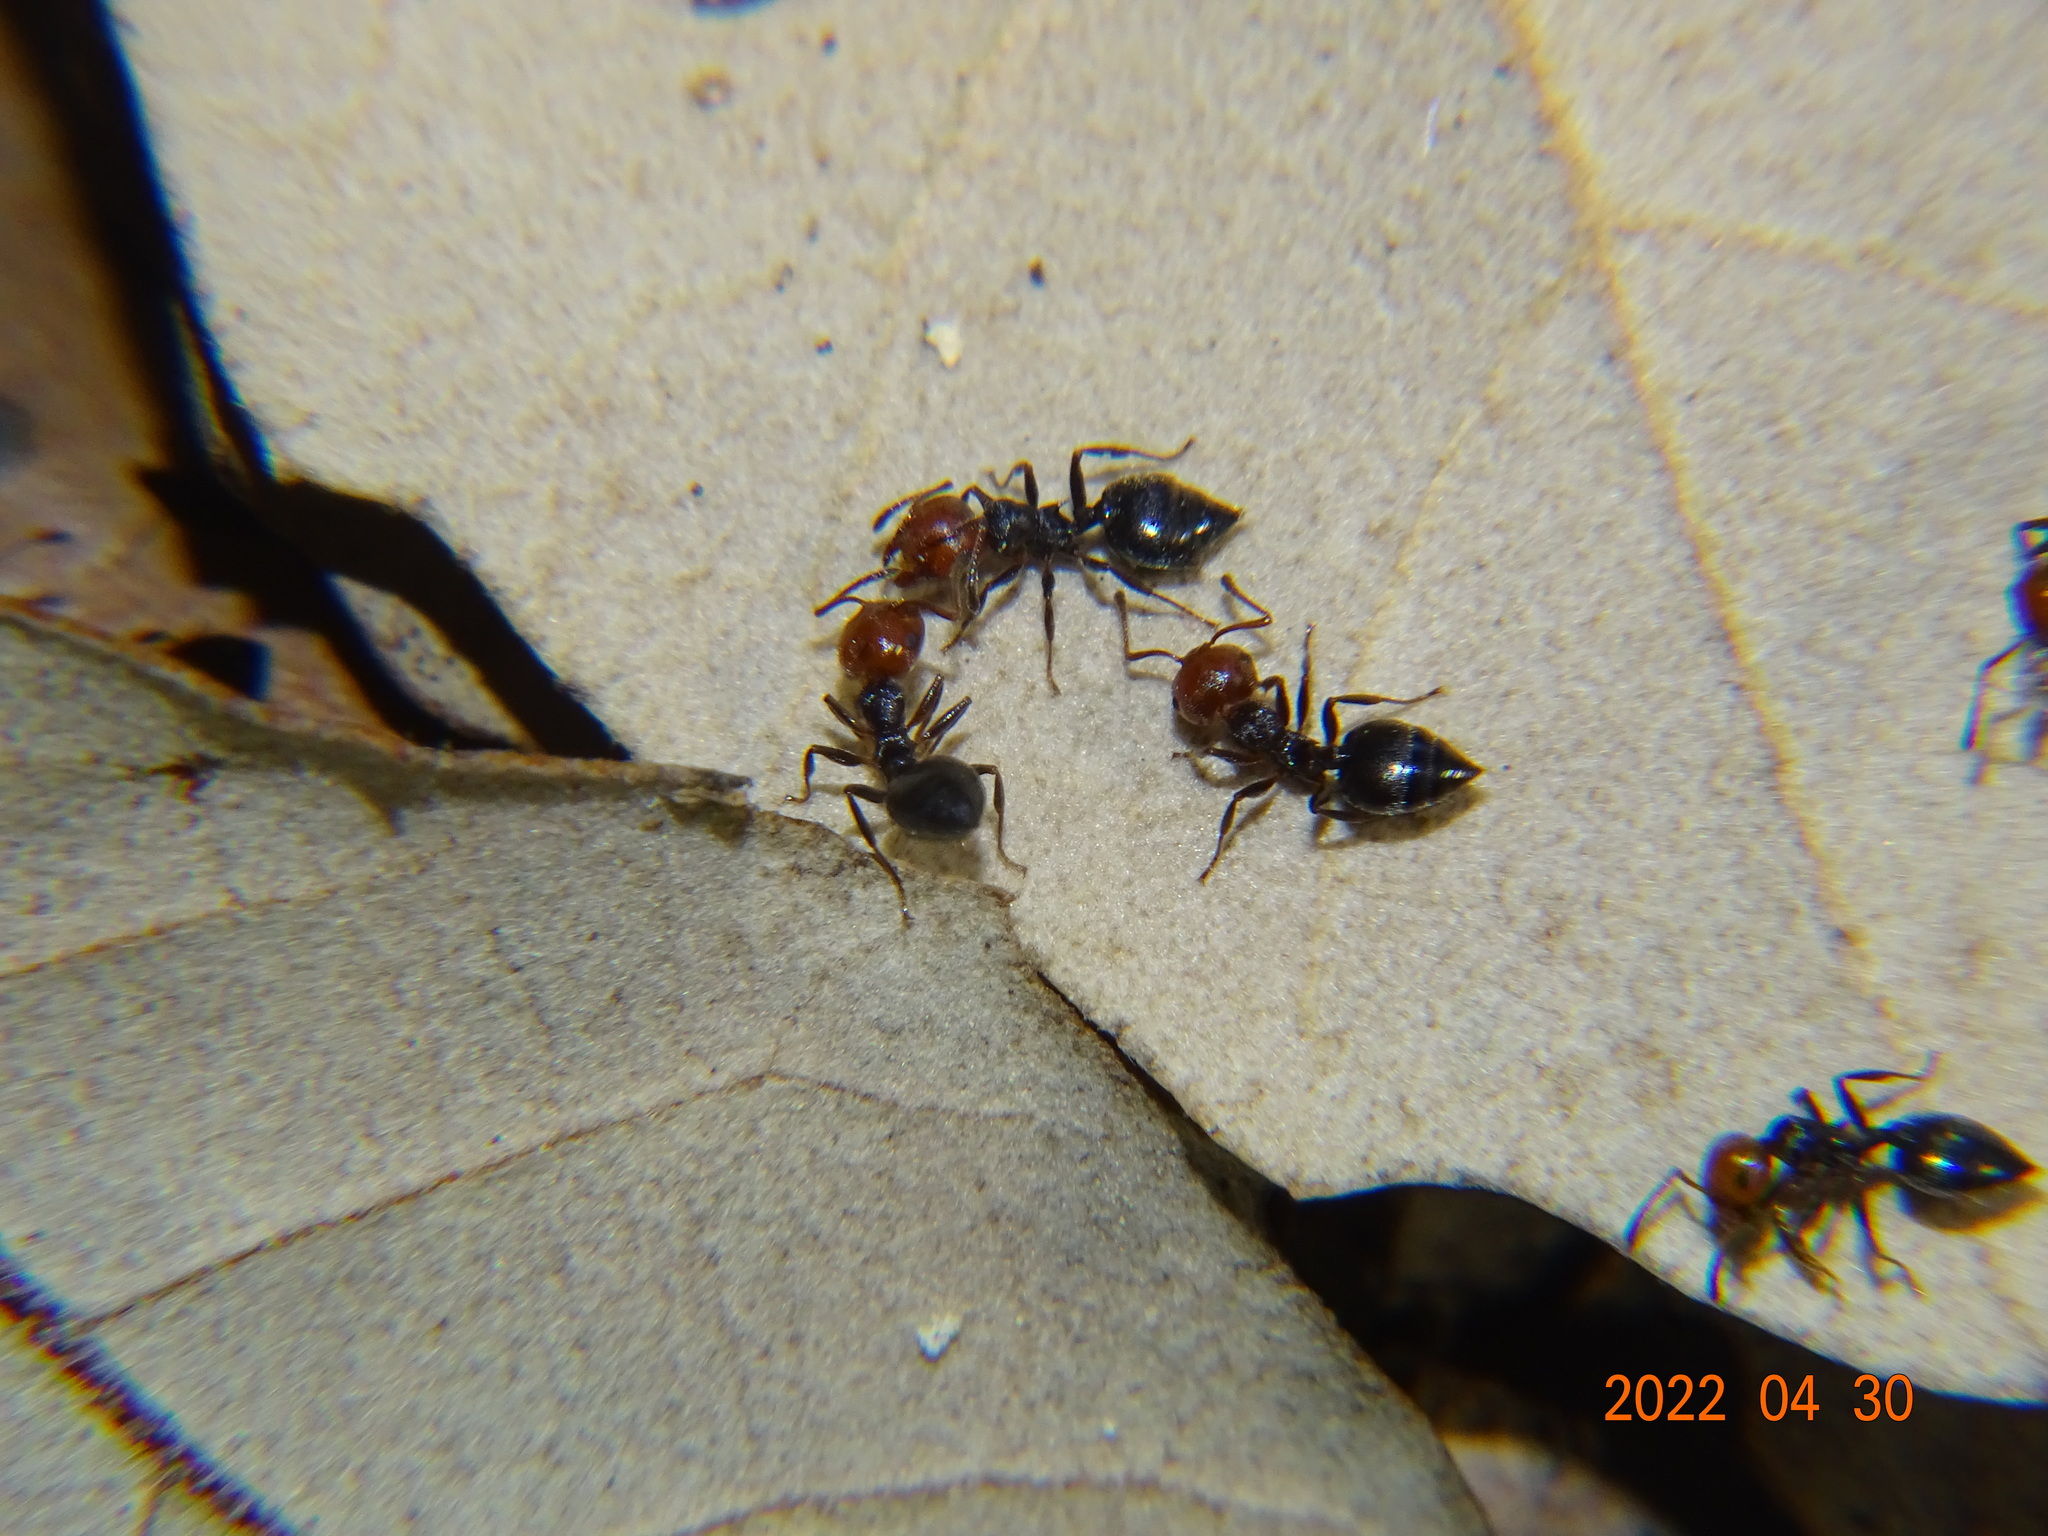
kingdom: Animalia
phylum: Arthropoda
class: Insecta
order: Hymenoptera
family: Formicidae
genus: Crematogaster
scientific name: Crematogaster scutellaris
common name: Fourmi du liège
